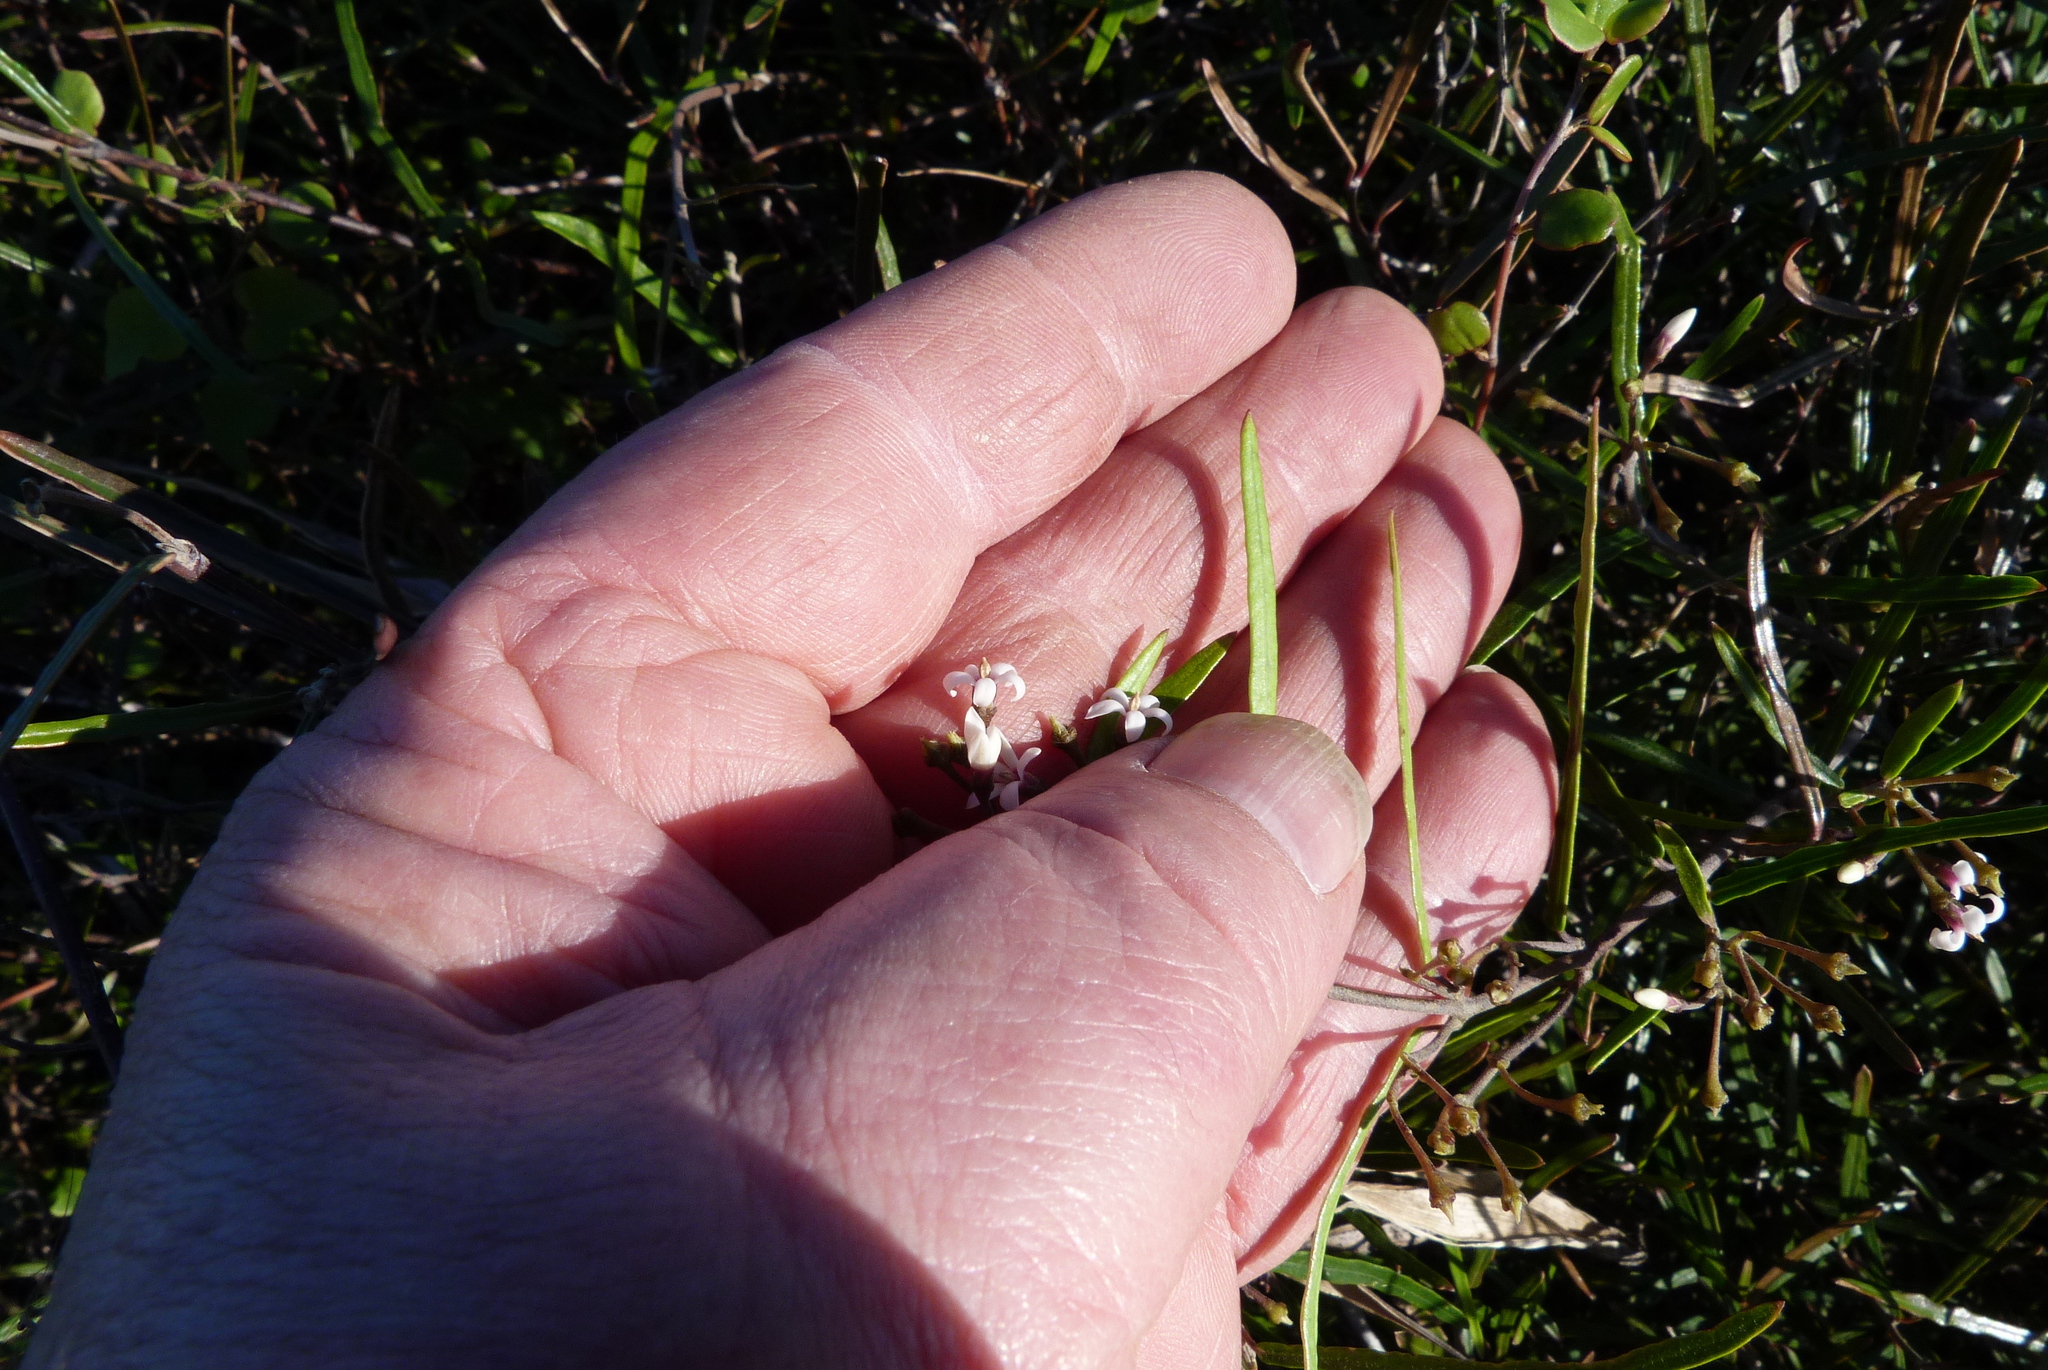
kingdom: Plantae
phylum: Tracheophyta
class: Magnoliopsida
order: Gentianales
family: Apocynaceae
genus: Parsonsia
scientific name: Parsonsia capsularis
